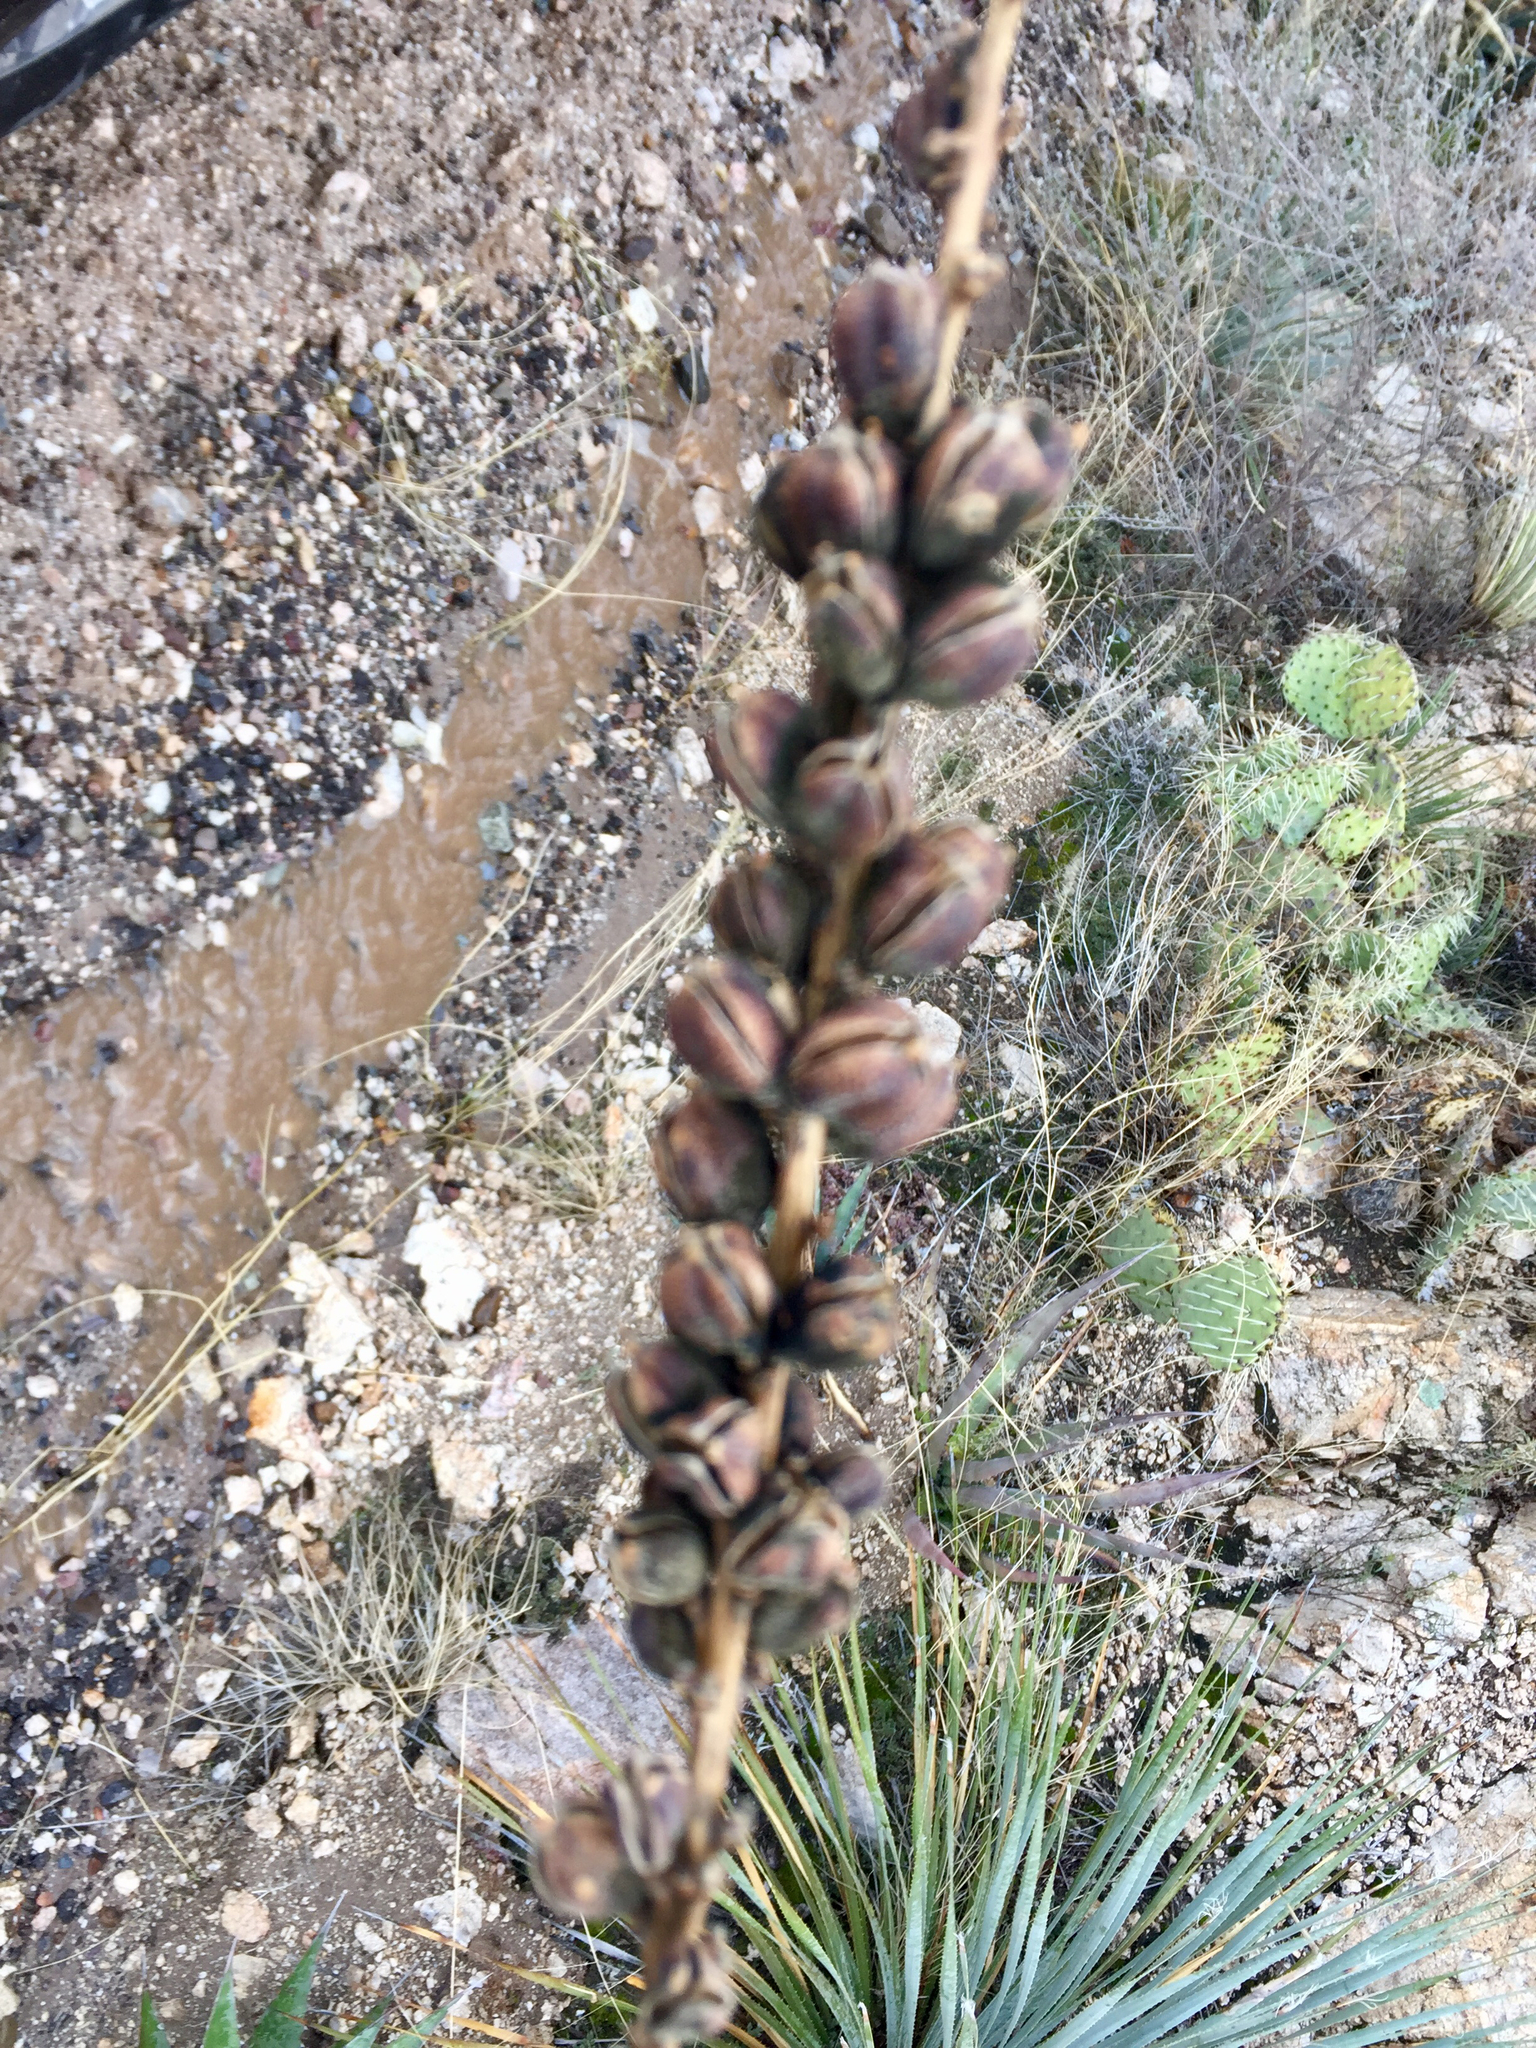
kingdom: Plantae
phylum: Tracheophyta
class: Liliopsida
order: Asparagales
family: Asparagaceae
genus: Agave
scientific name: Agave schottii
